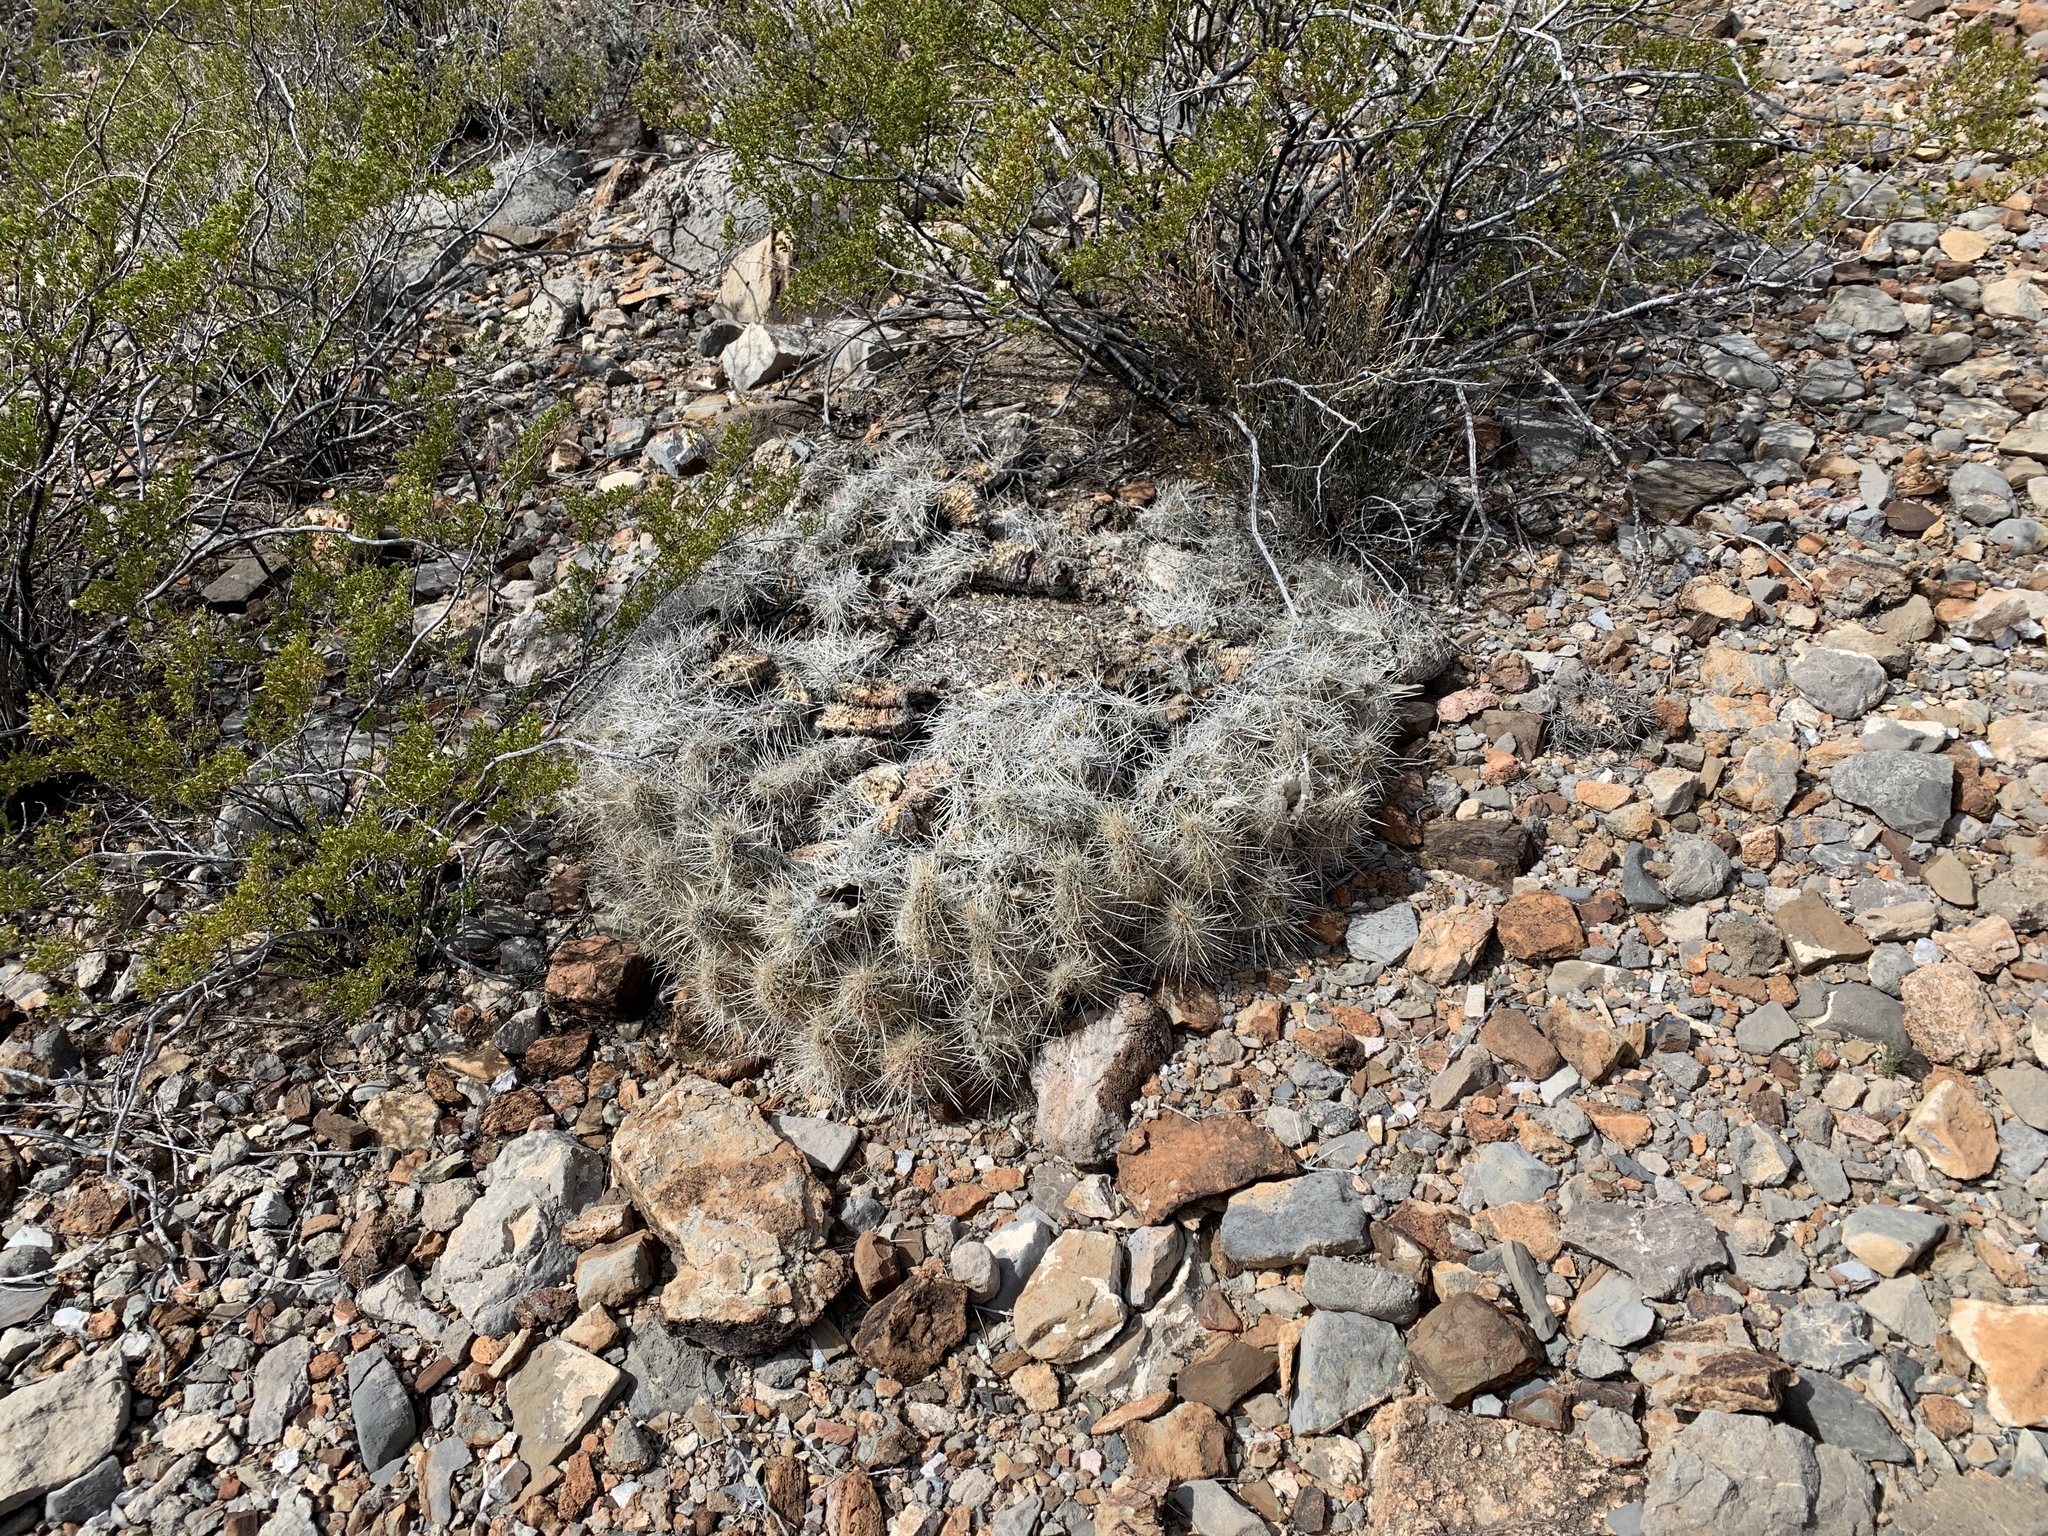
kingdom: Plantae
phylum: Tracheophyta
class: Magnoliopsida
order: Caryophyllales
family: Cactaceae
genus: Echinocereus
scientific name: Echinocereus stramineus
